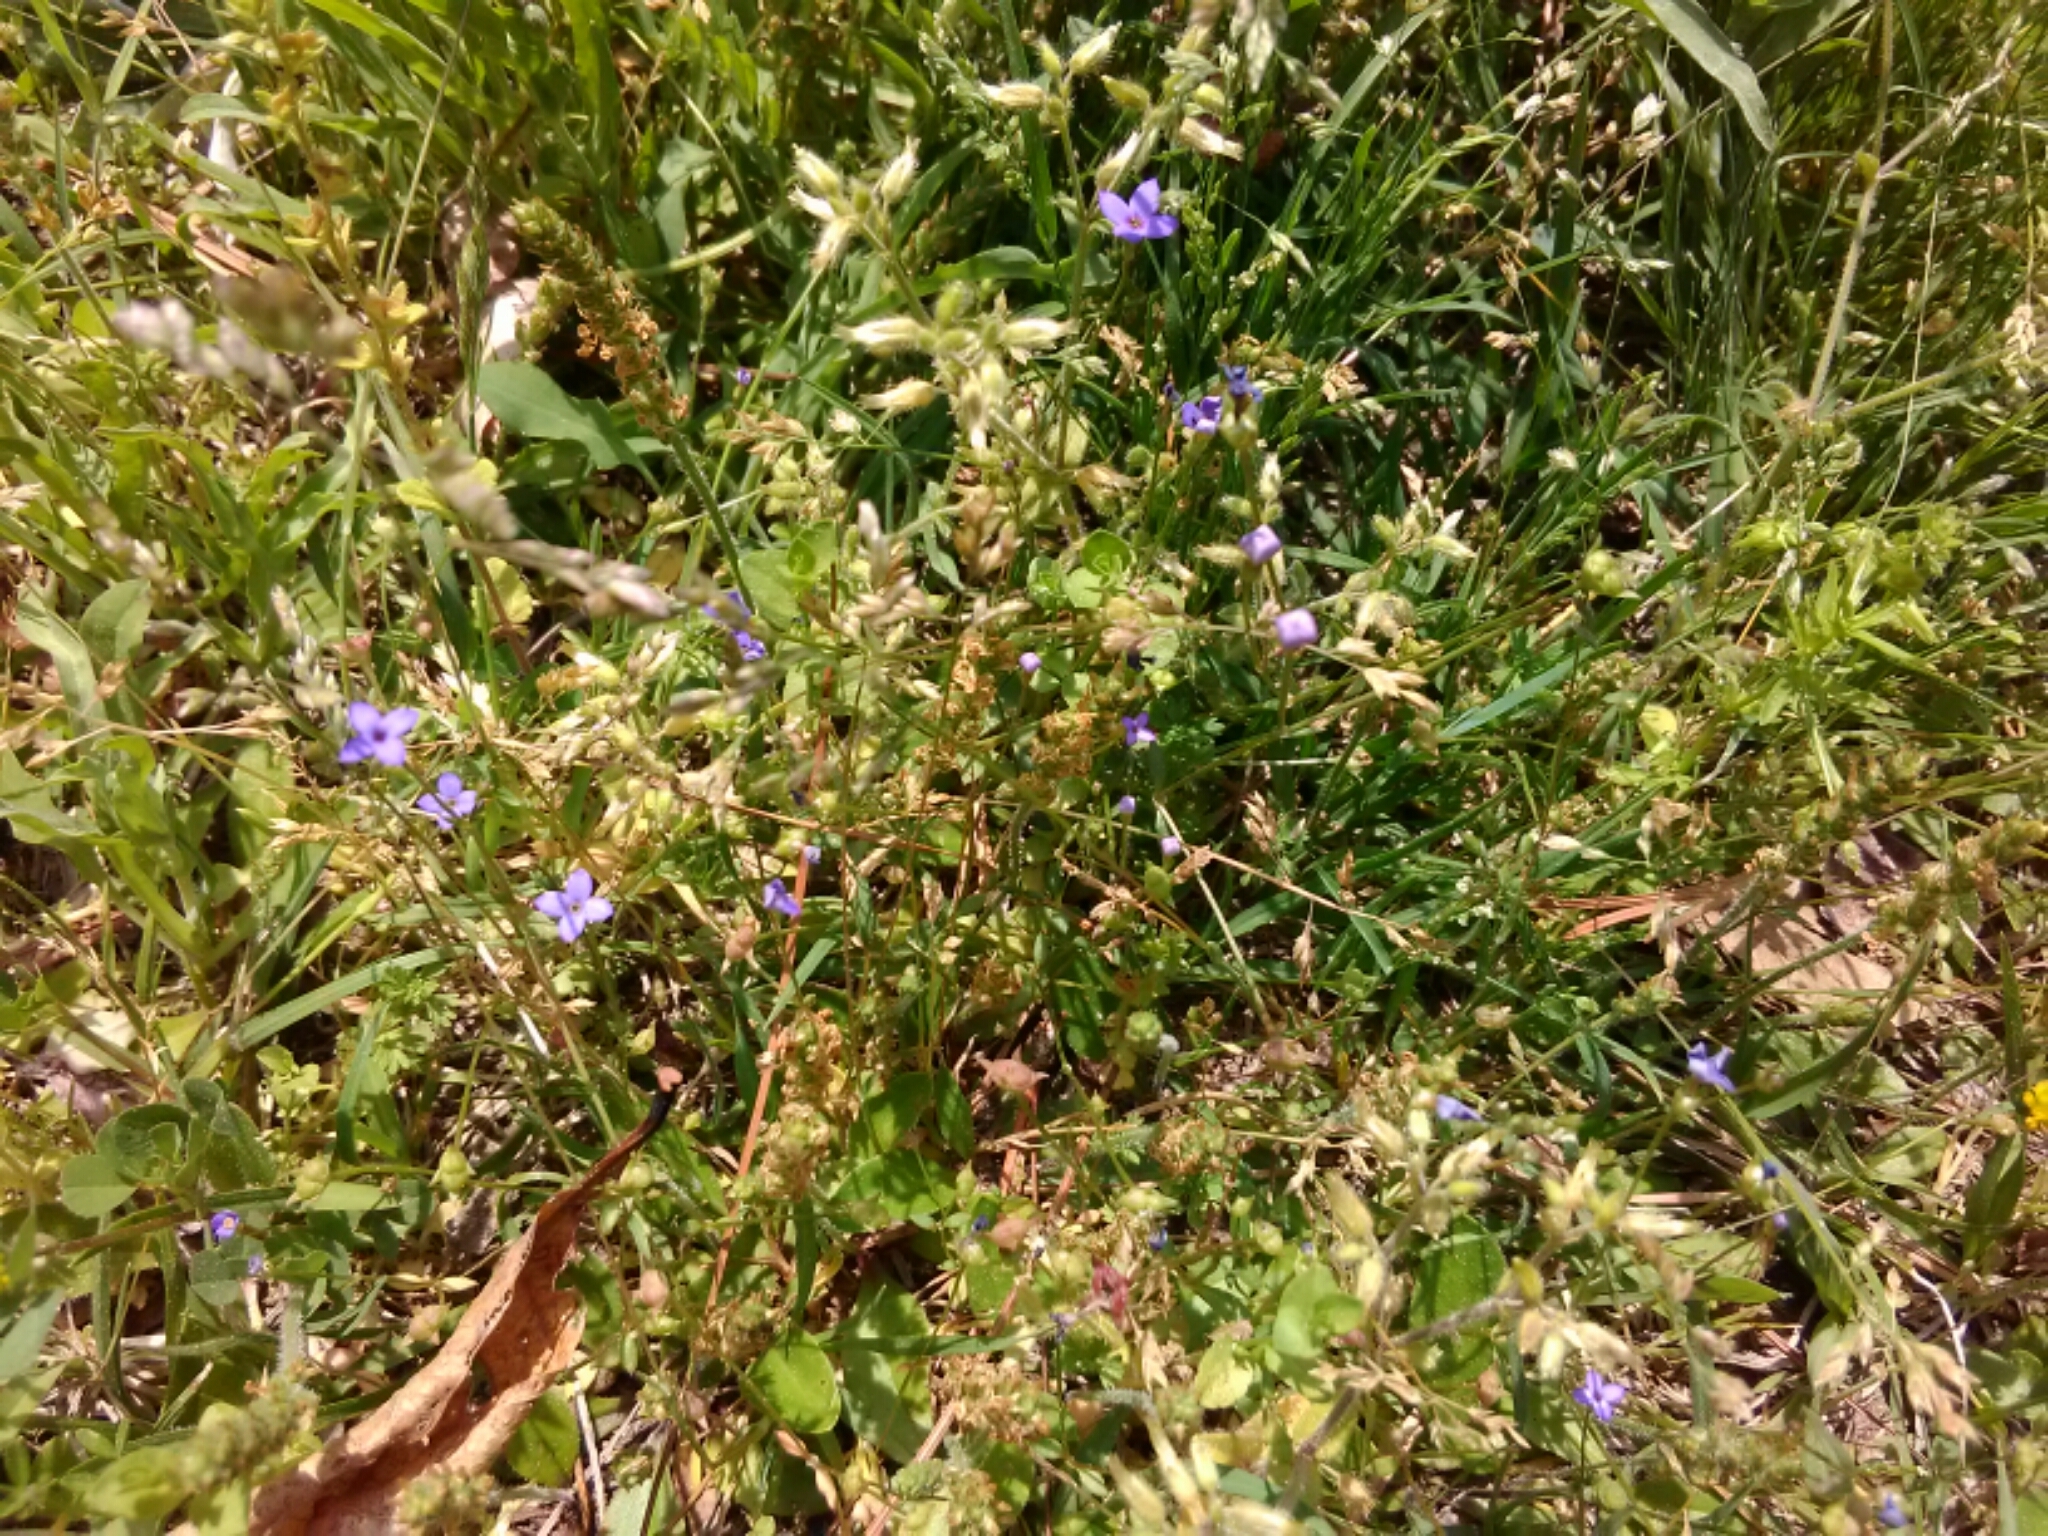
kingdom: Plantae
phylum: Tracheophyta
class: Magnoliopsida
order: Gentianales
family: Rubiaceae
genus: Houstonia
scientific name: Houstonia pusilla
